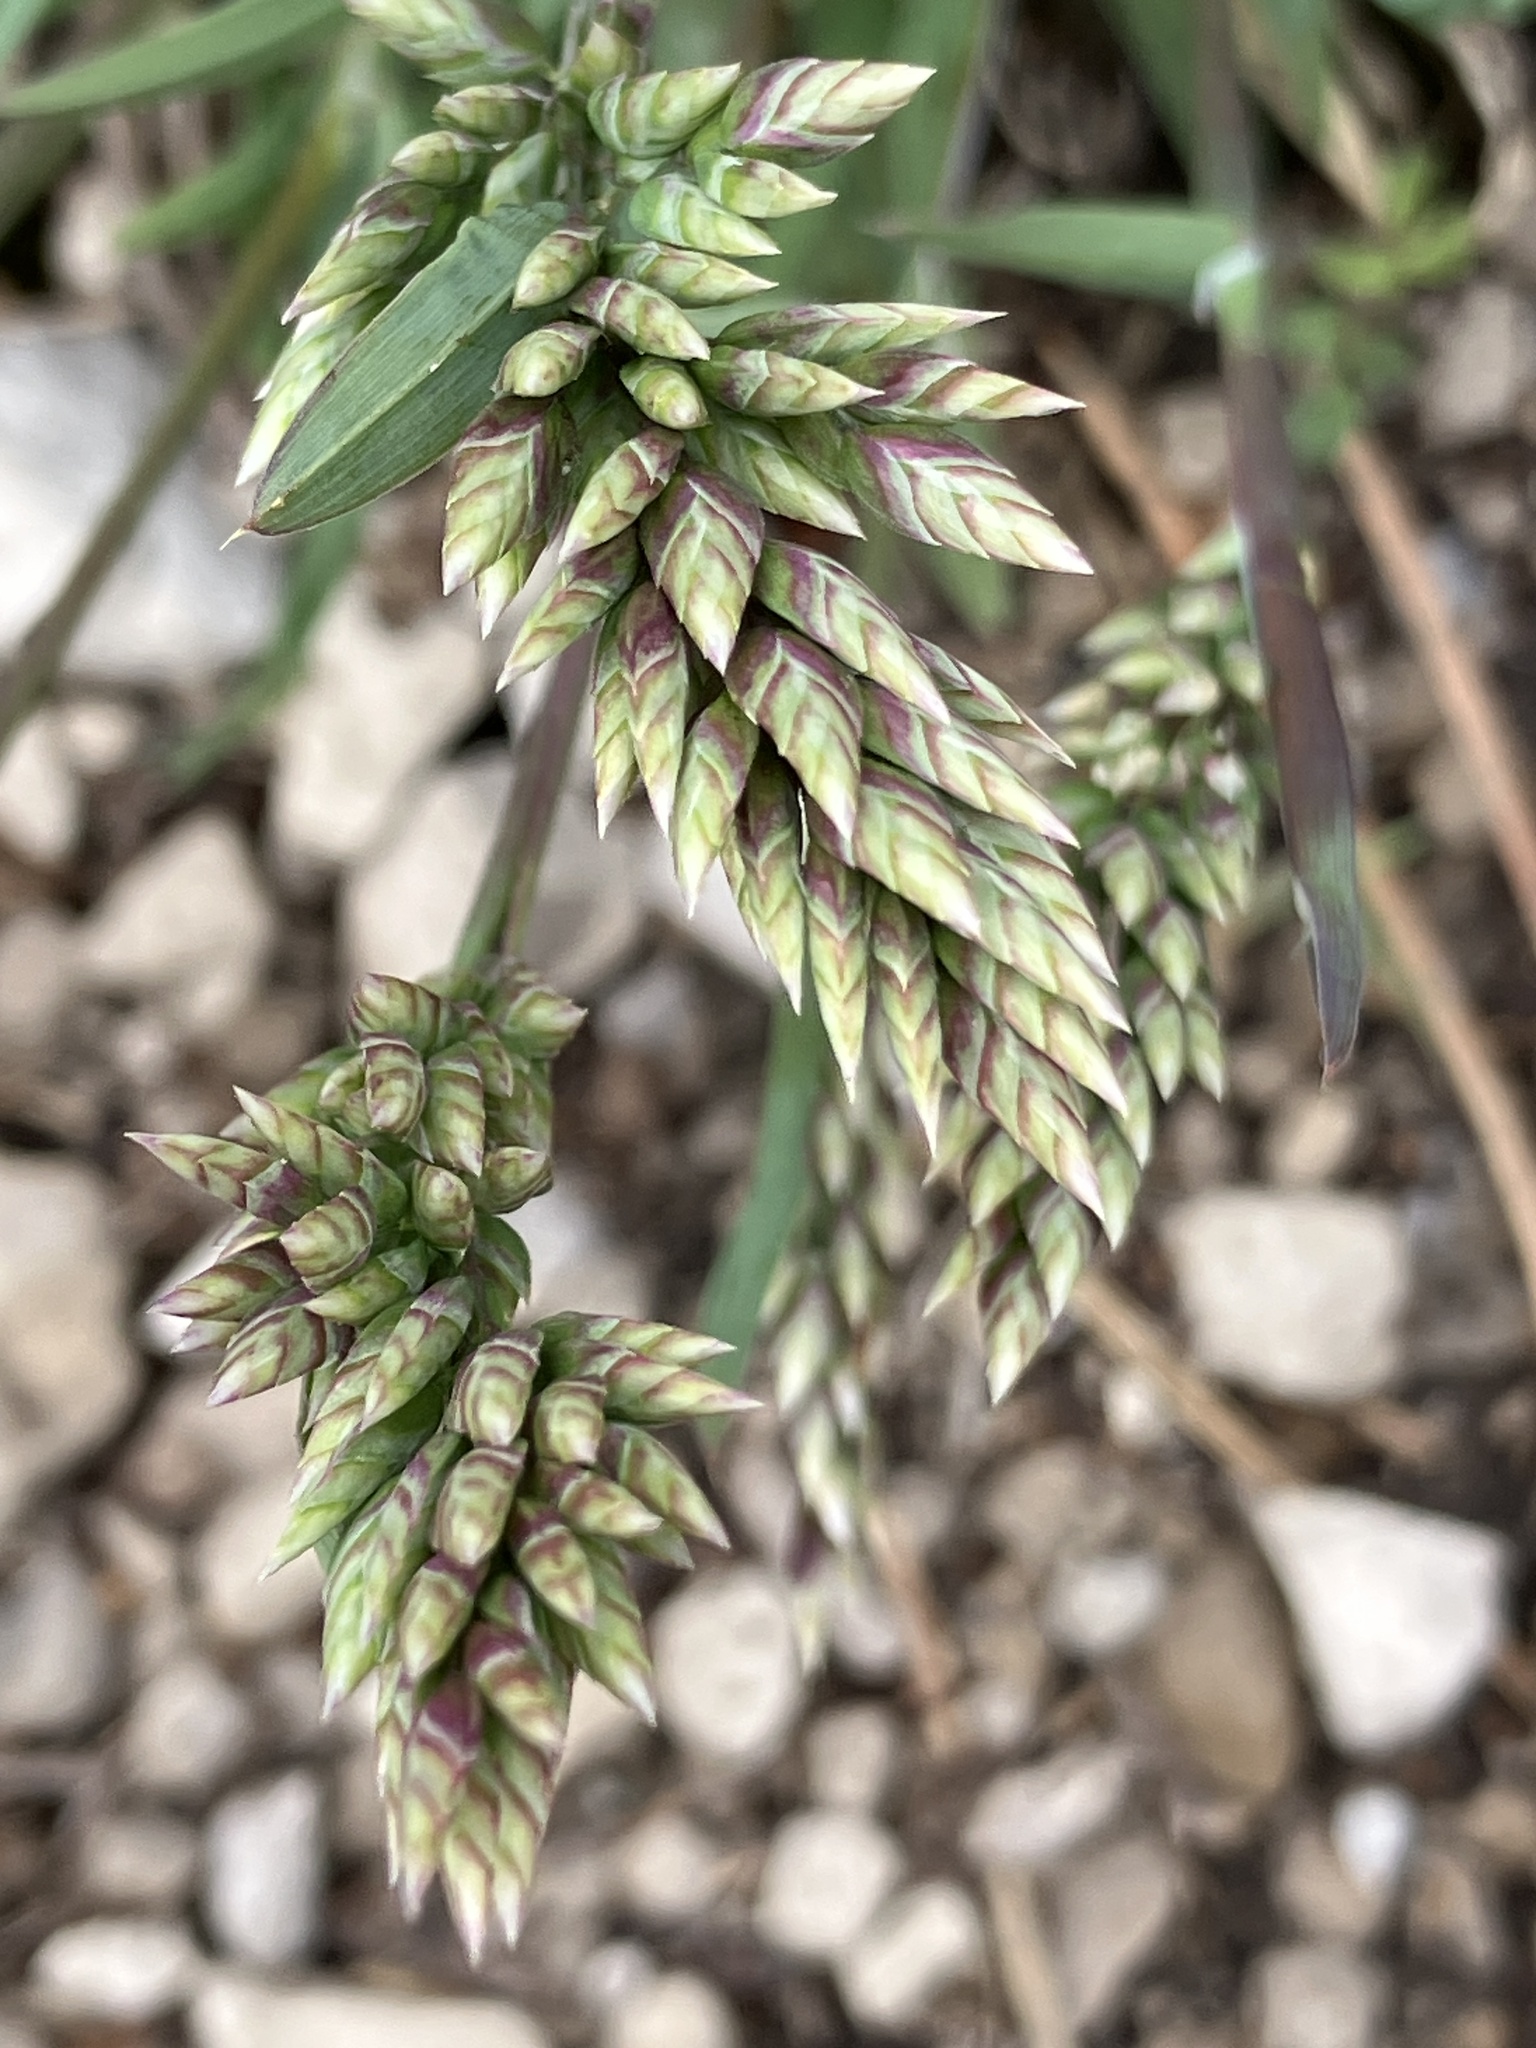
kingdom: Plantae
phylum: Tracheophyta
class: Liliopsida
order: Poales
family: Poaceae
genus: Poa
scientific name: Poa badensis
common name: Baden's bluegrass
